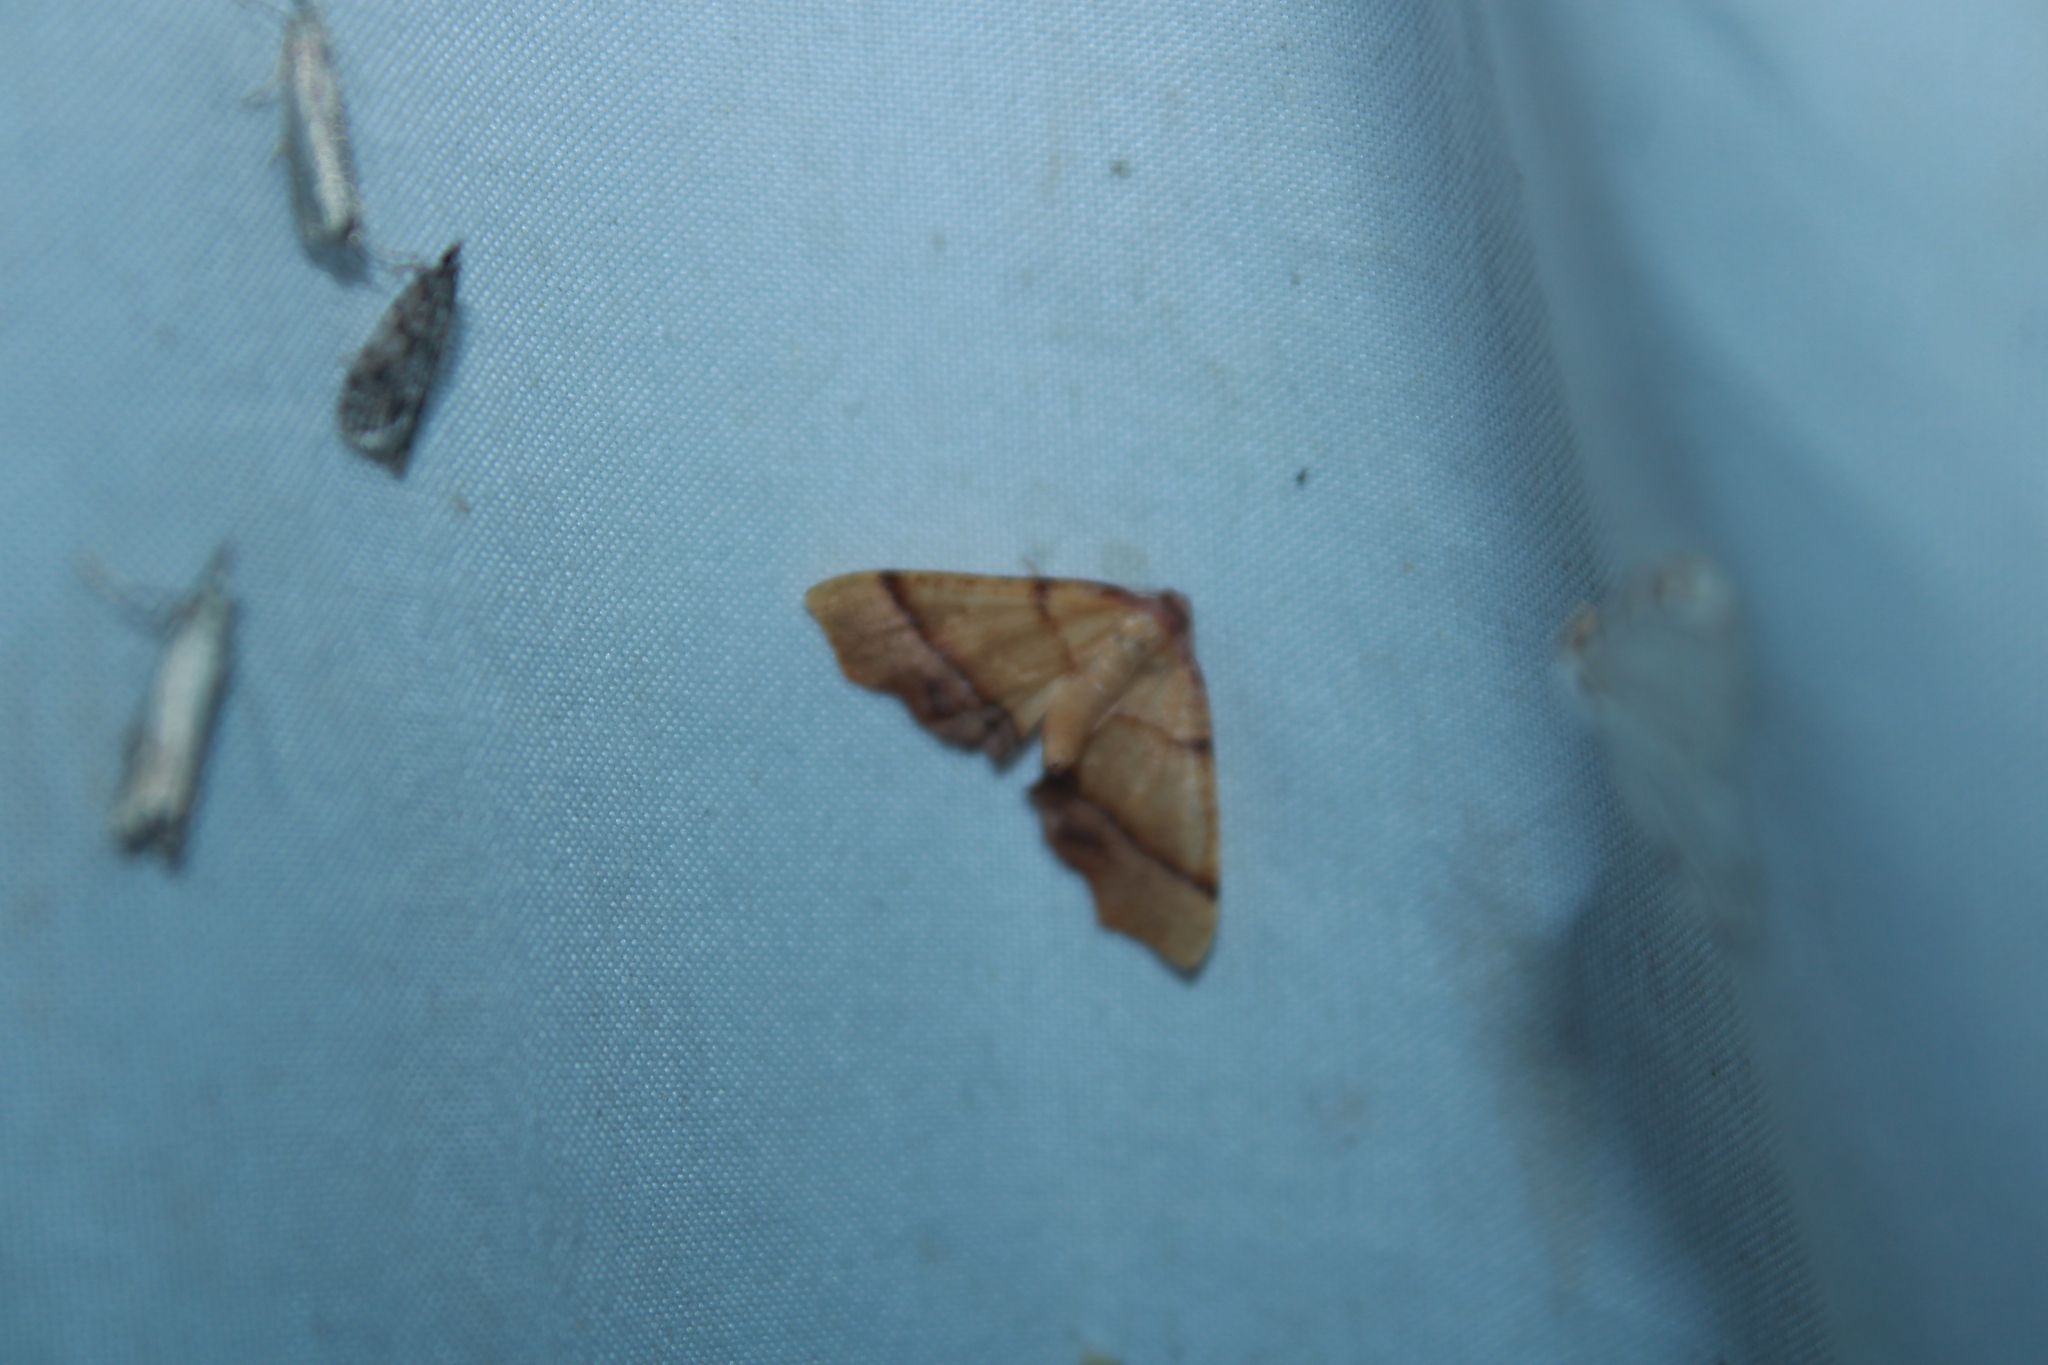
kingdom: Animalia
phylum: Arthropoda
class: Insecta
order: Lepidoptera
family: Geometridae
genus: Plagodis
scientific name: Plagodis phlogosaria
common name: Straight-lined plagodis
